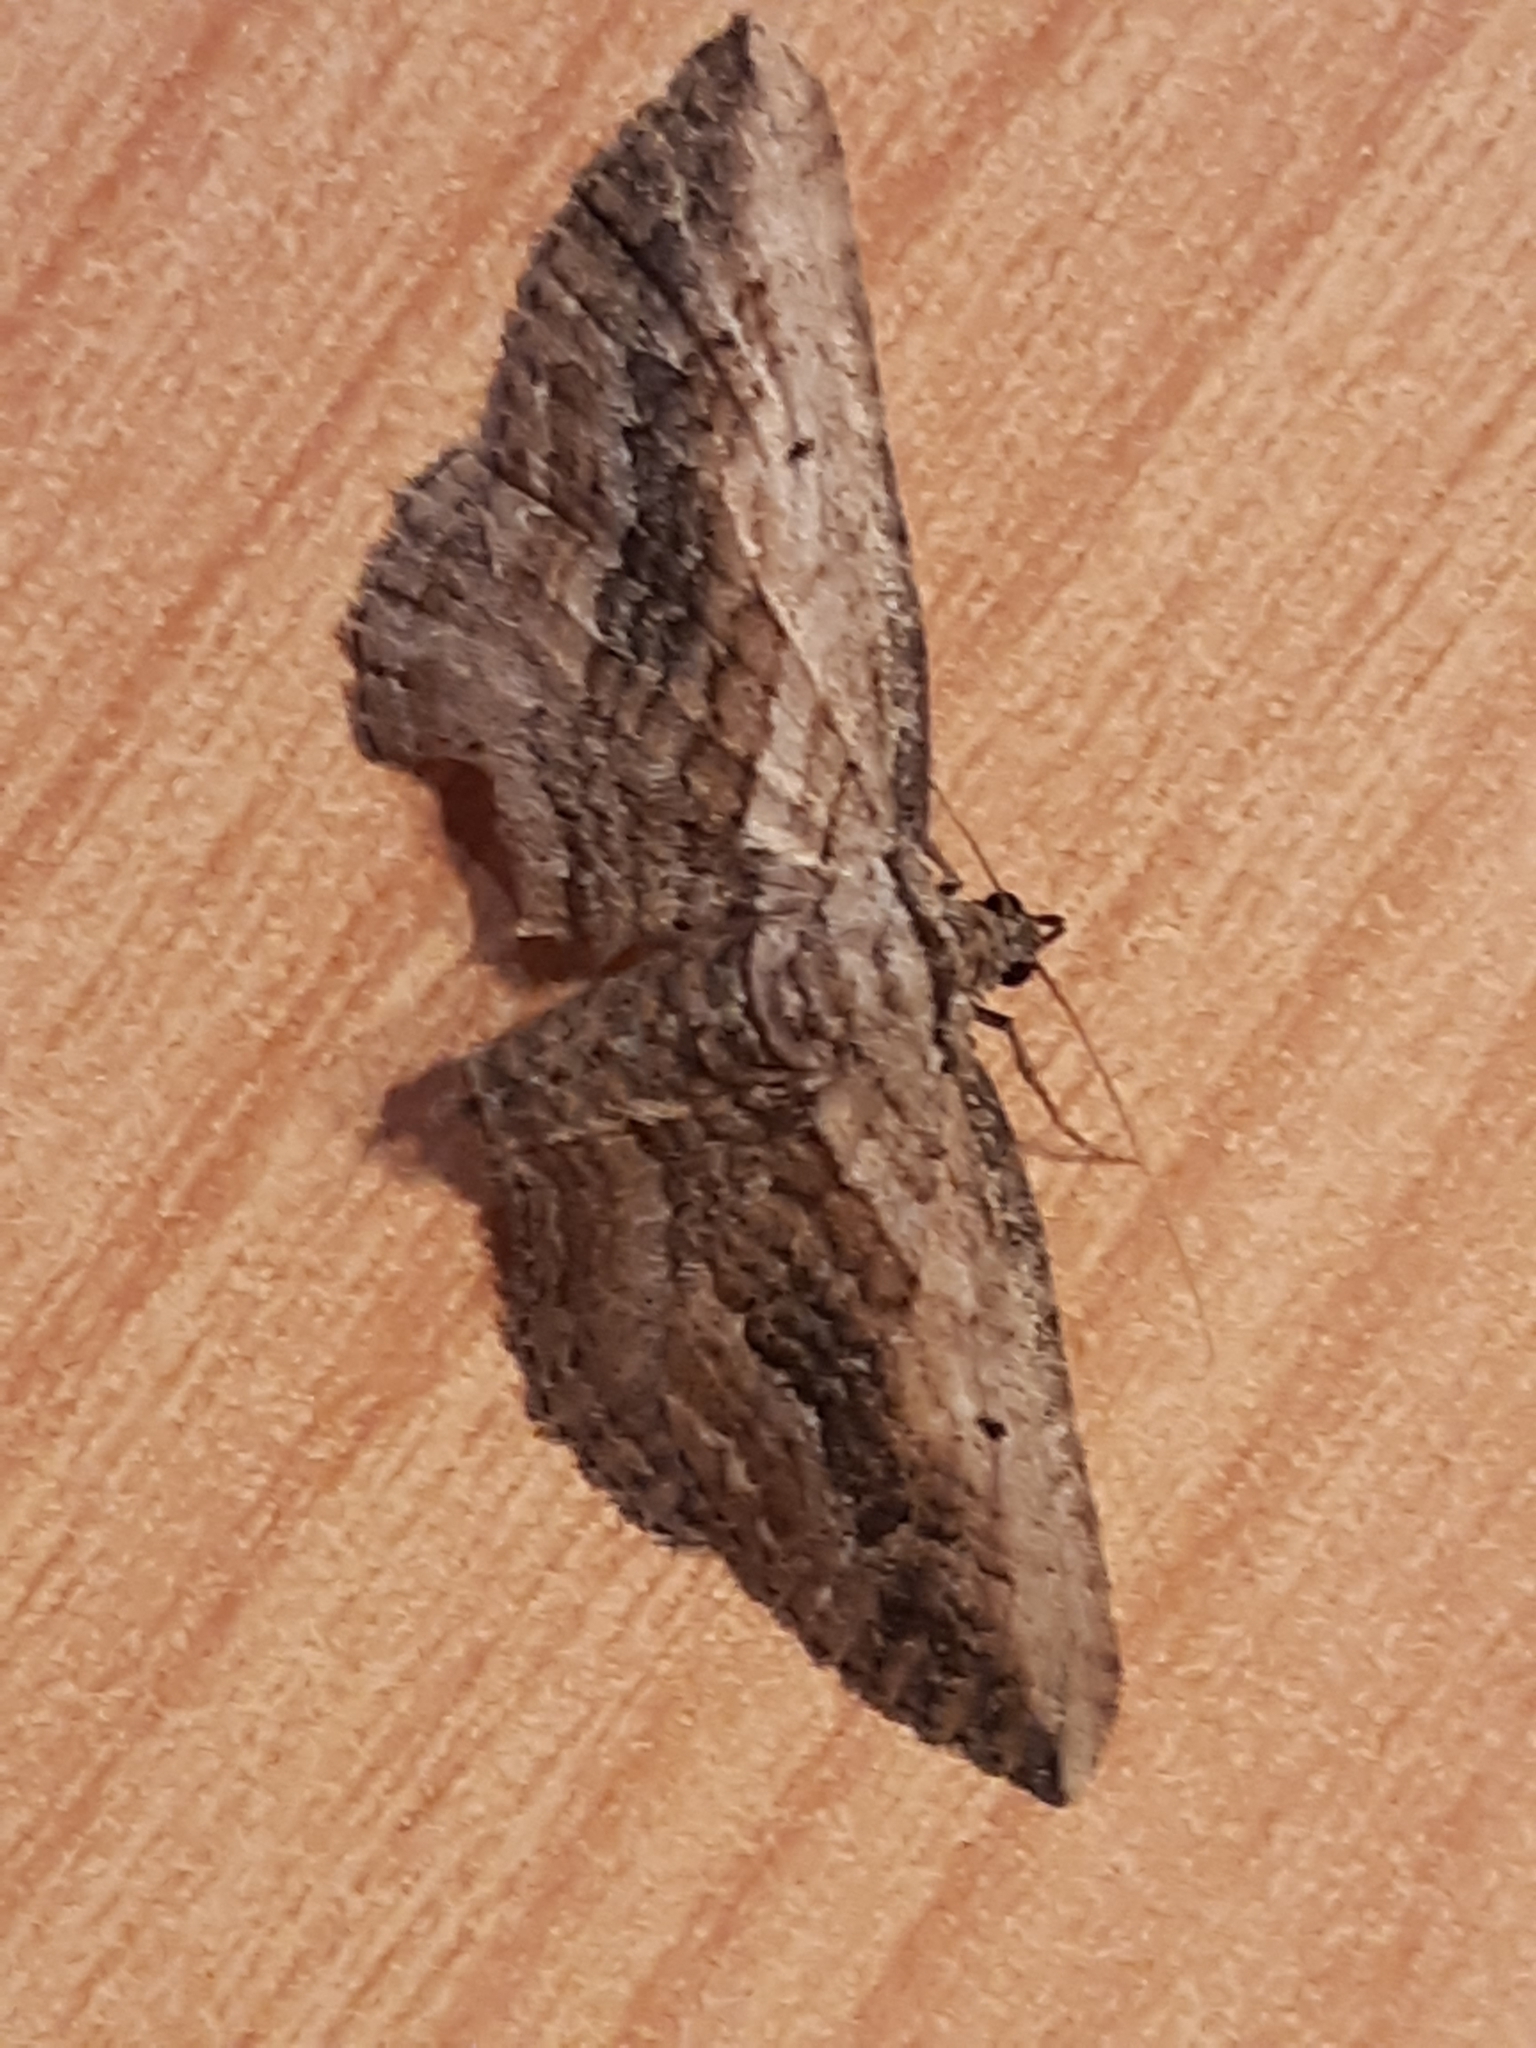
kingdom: Animalia
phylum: Arthropoda
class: Insecta
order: Lepidoptera
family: Geometridae
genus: Horisme
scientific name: Horisme vitalbata
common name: Small waved umber
